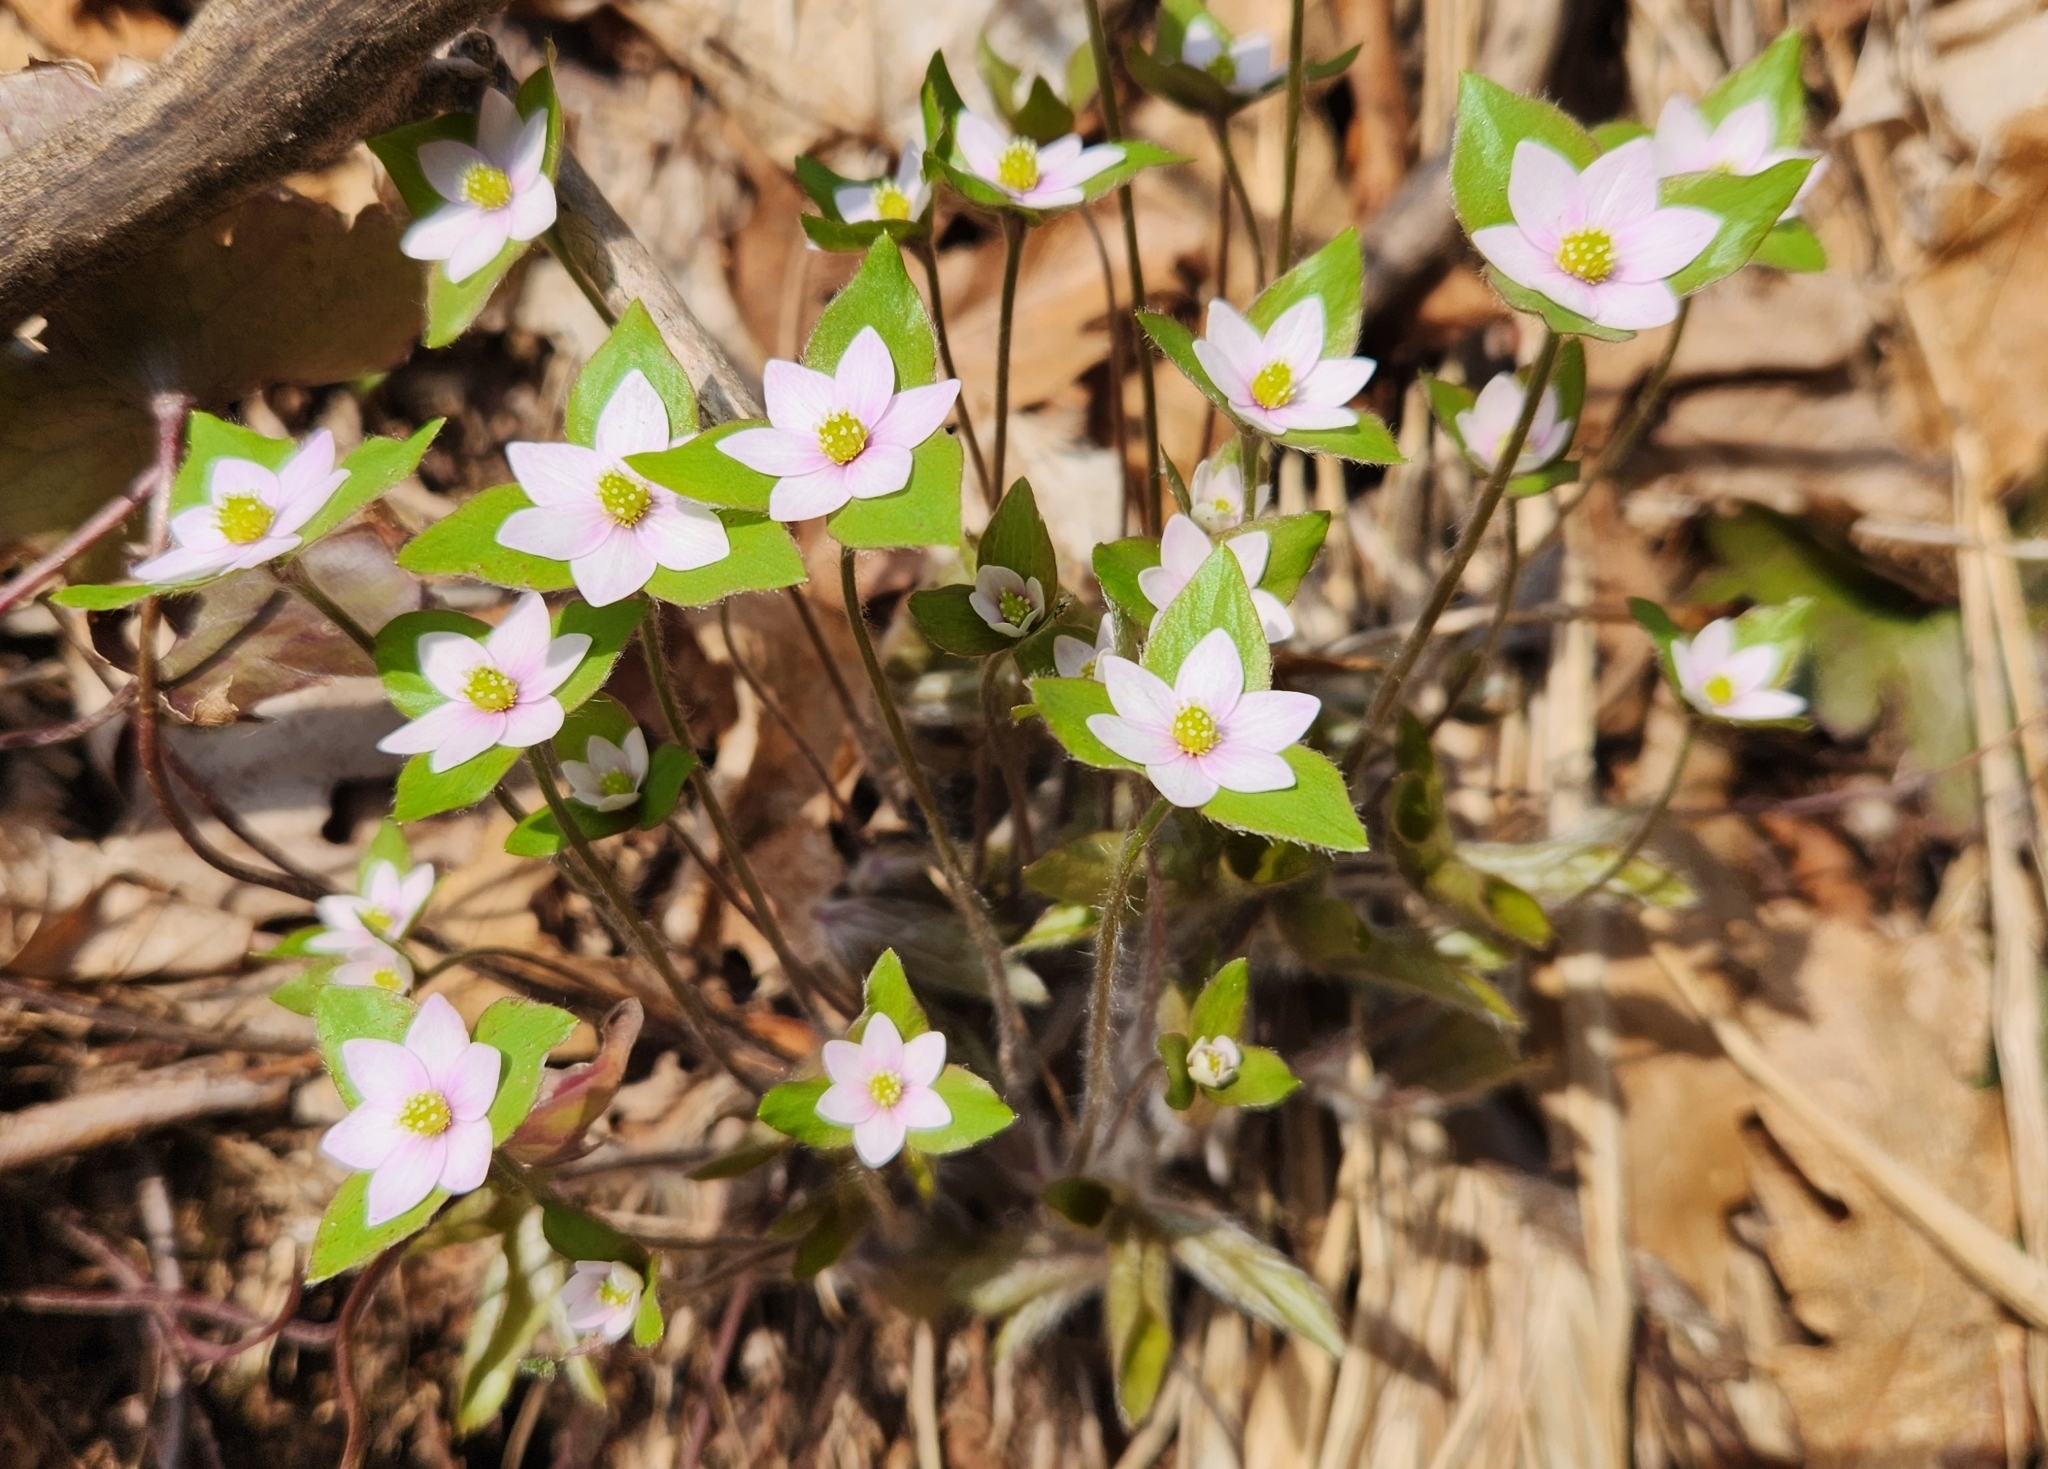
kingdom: Plantae
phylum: Tracheophyta
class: Magnoliopsida
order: Ranunculales
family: Ranunculaceae
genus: Hepatica
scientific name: Hepatica acutiloba
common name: Sharp-lobed hepatica
